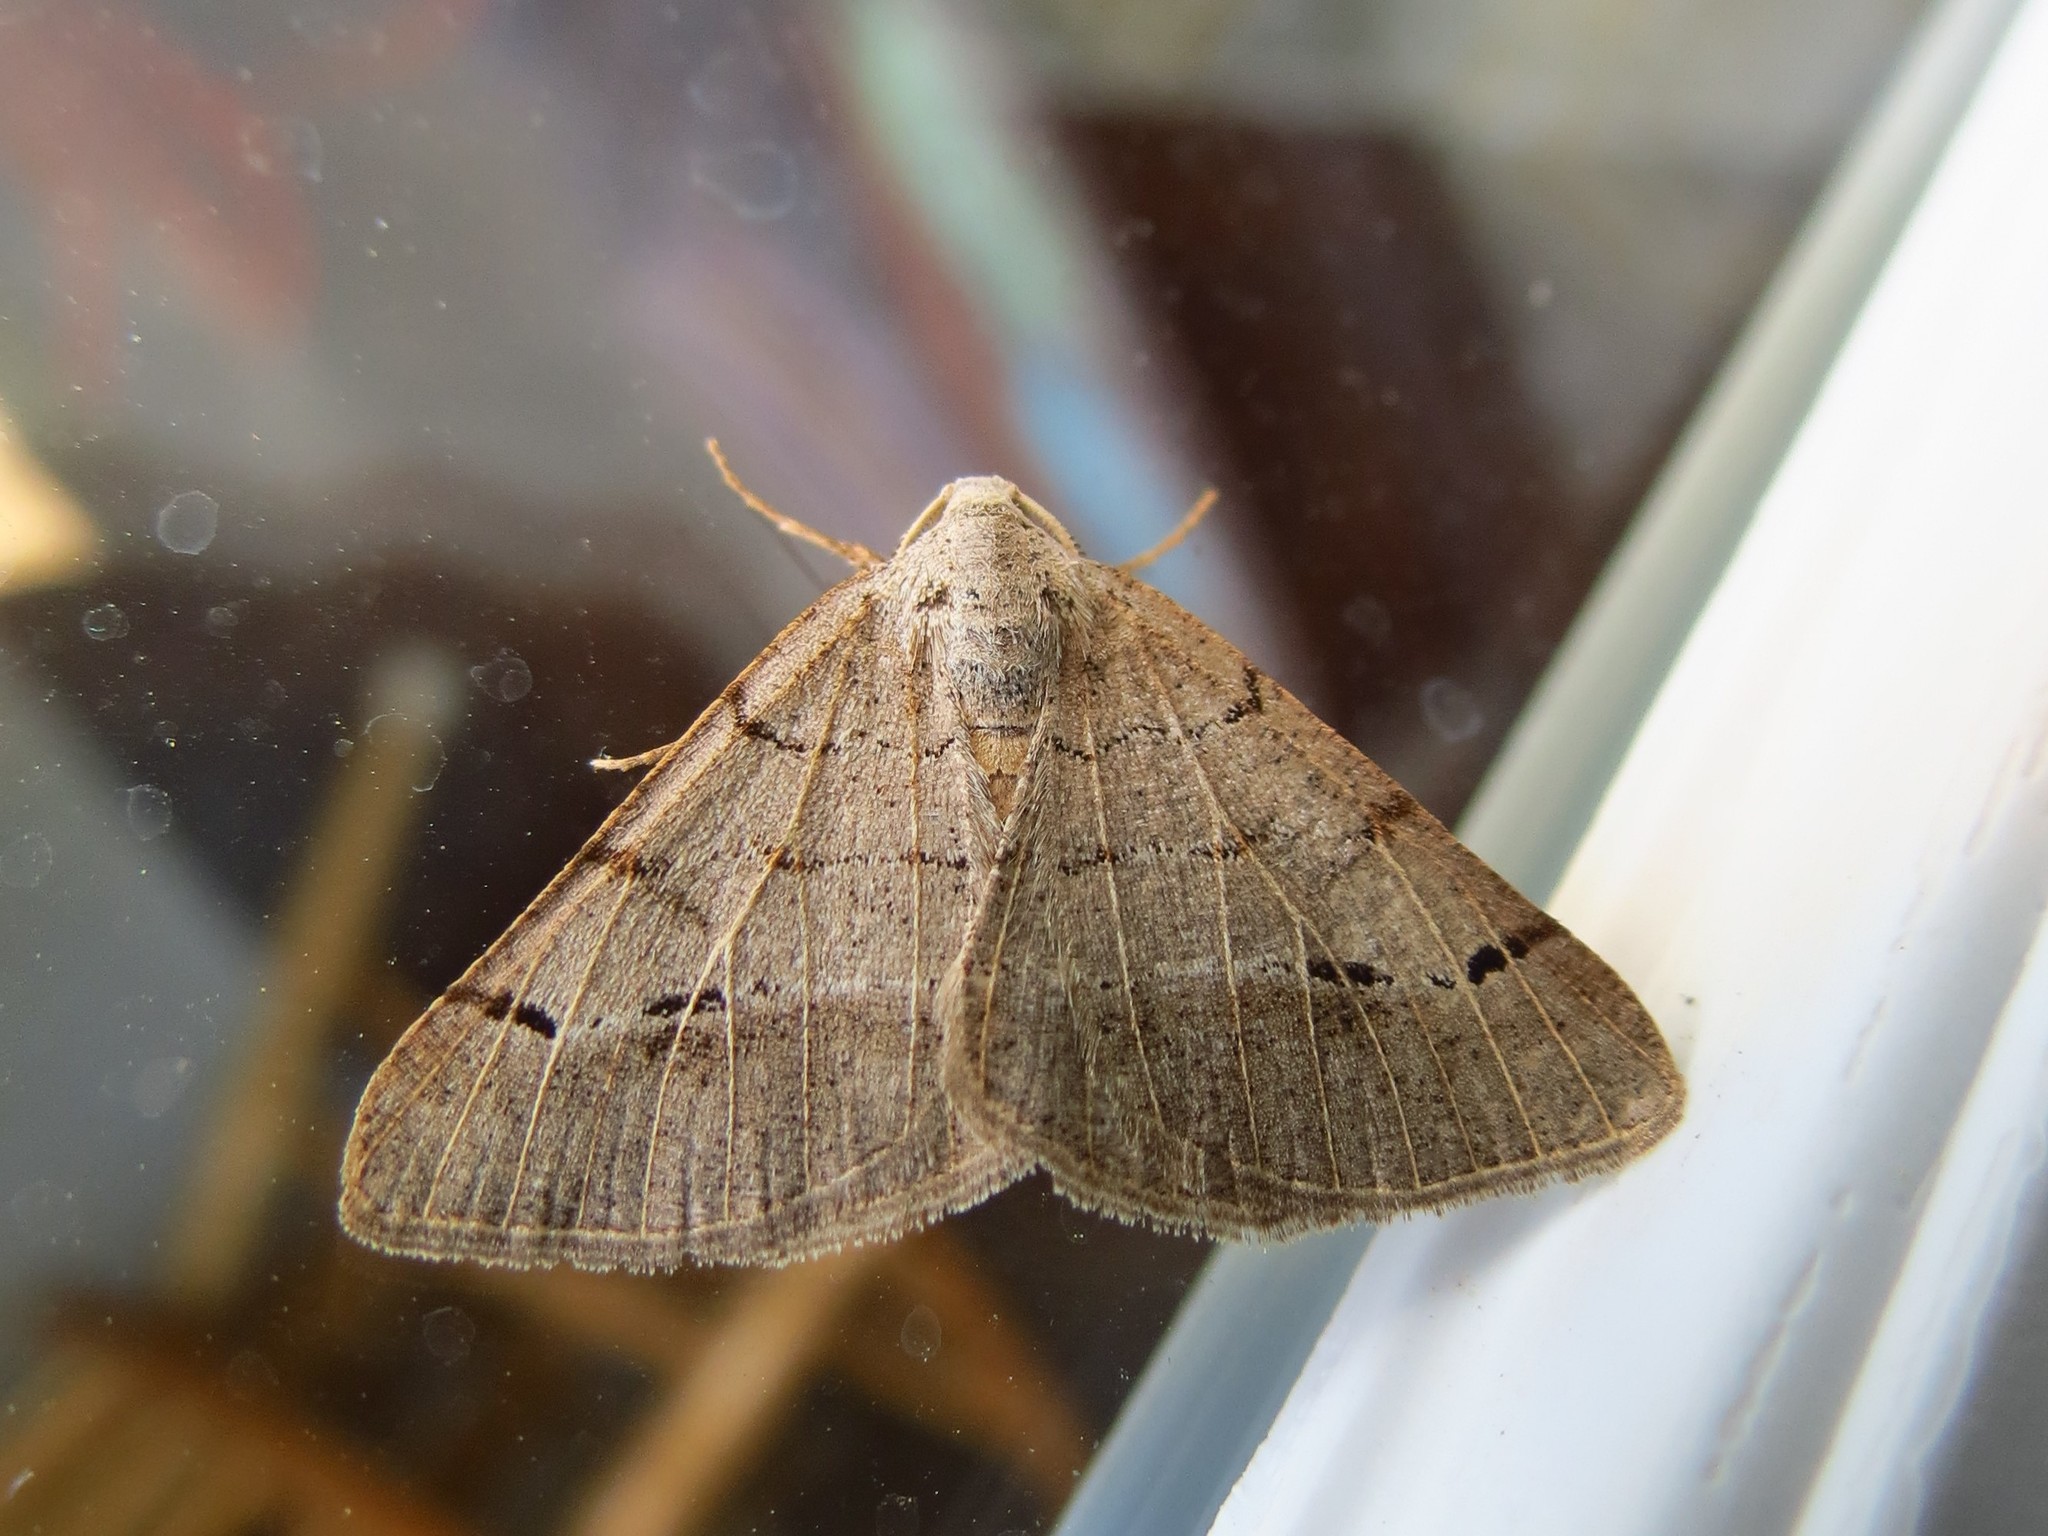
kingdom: Animalia
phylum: Arthropoda
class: Insecta
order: Lepidoptera
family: Geometridae
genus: Isturgia
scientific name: Isturgia dislocaria
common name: Pale-viened enconista
